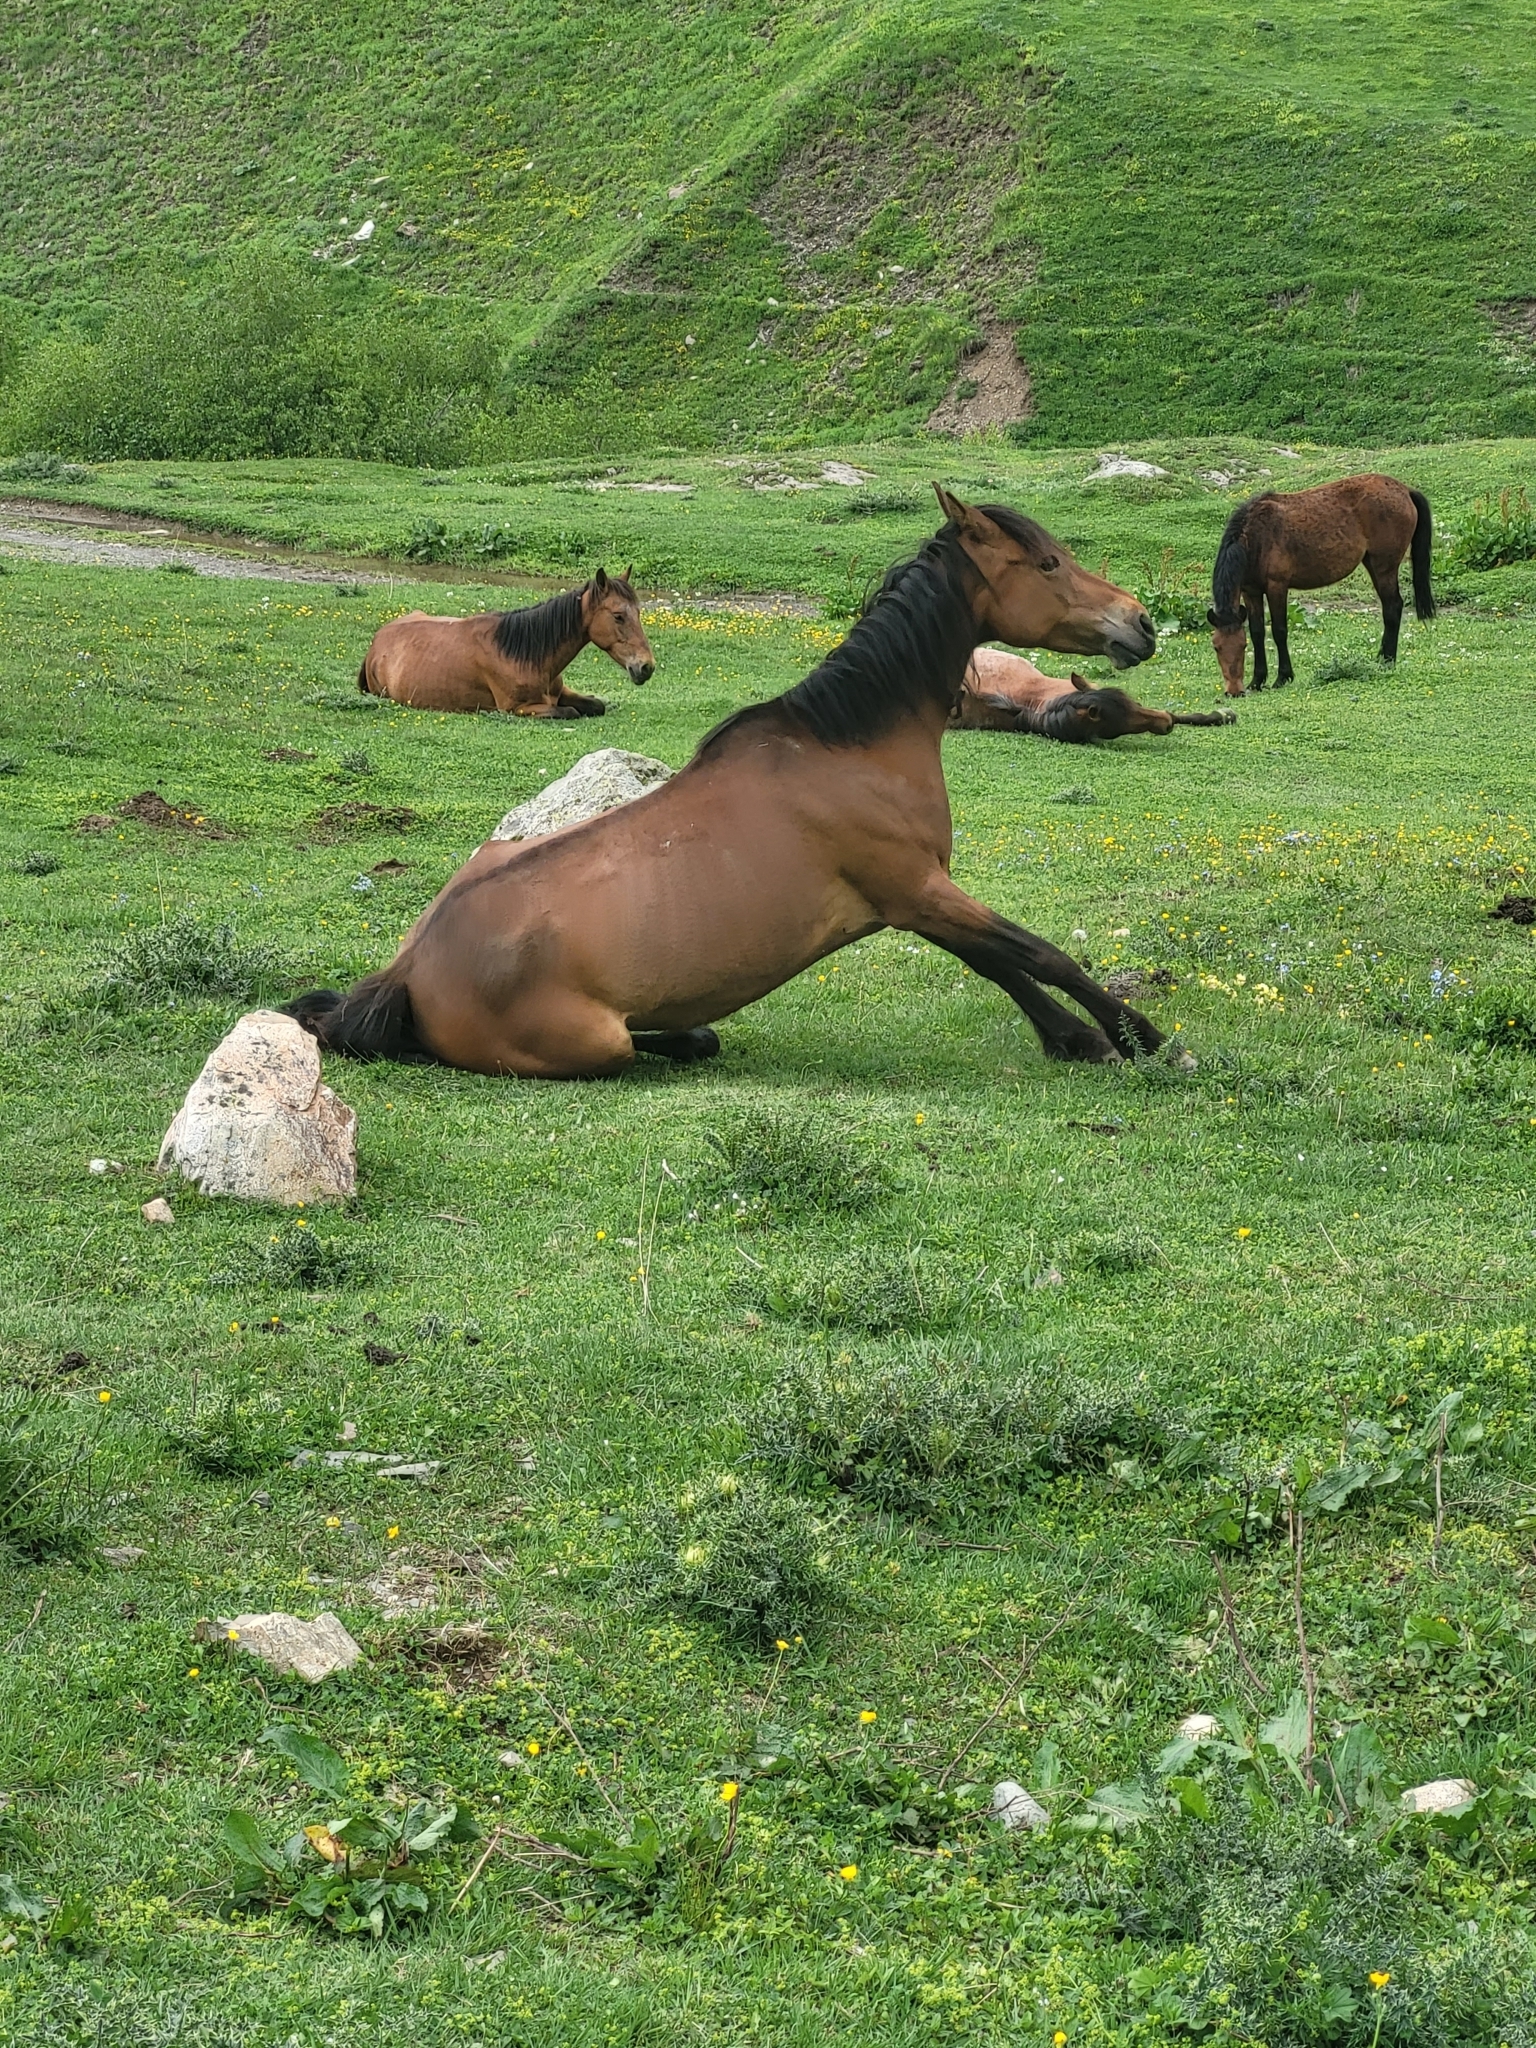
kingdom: Animalia
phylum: Chordata
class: Mammalia
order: Perissodactyla
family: Equidae
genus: Equus
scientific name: Equus caballus
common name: Horse
